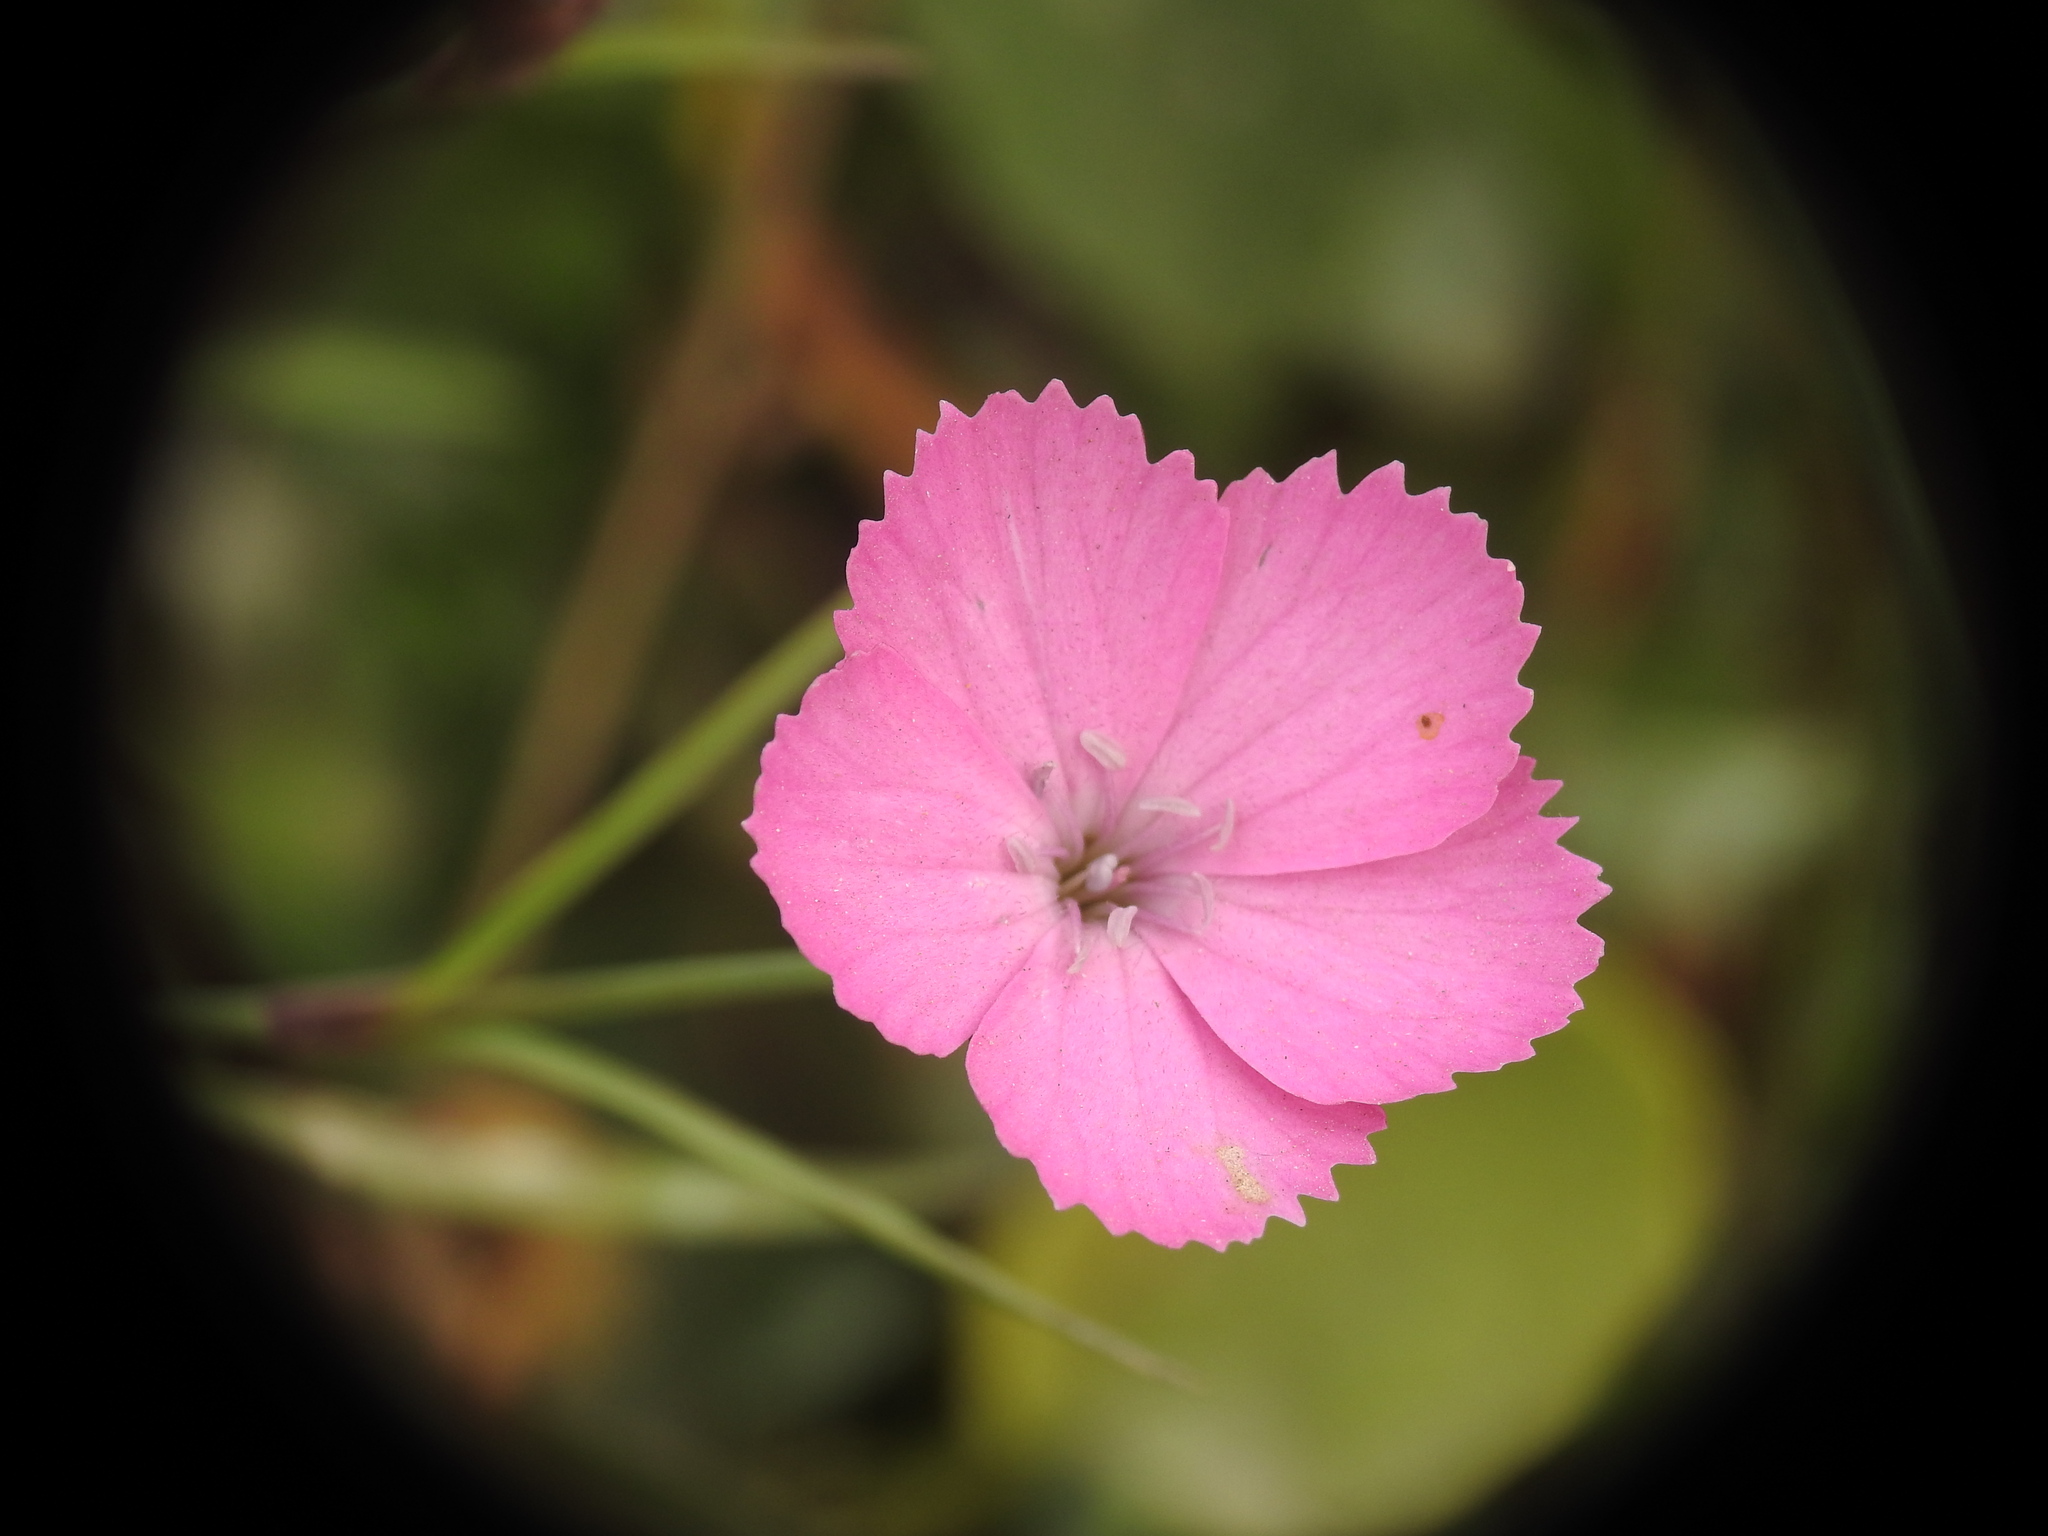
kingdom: Plantae
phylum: Tracheophyta
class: Magnoliopsida
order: Caryophyllales
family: Caryophyllaceae
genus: Dianthus
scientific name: Dianthus pavonius
